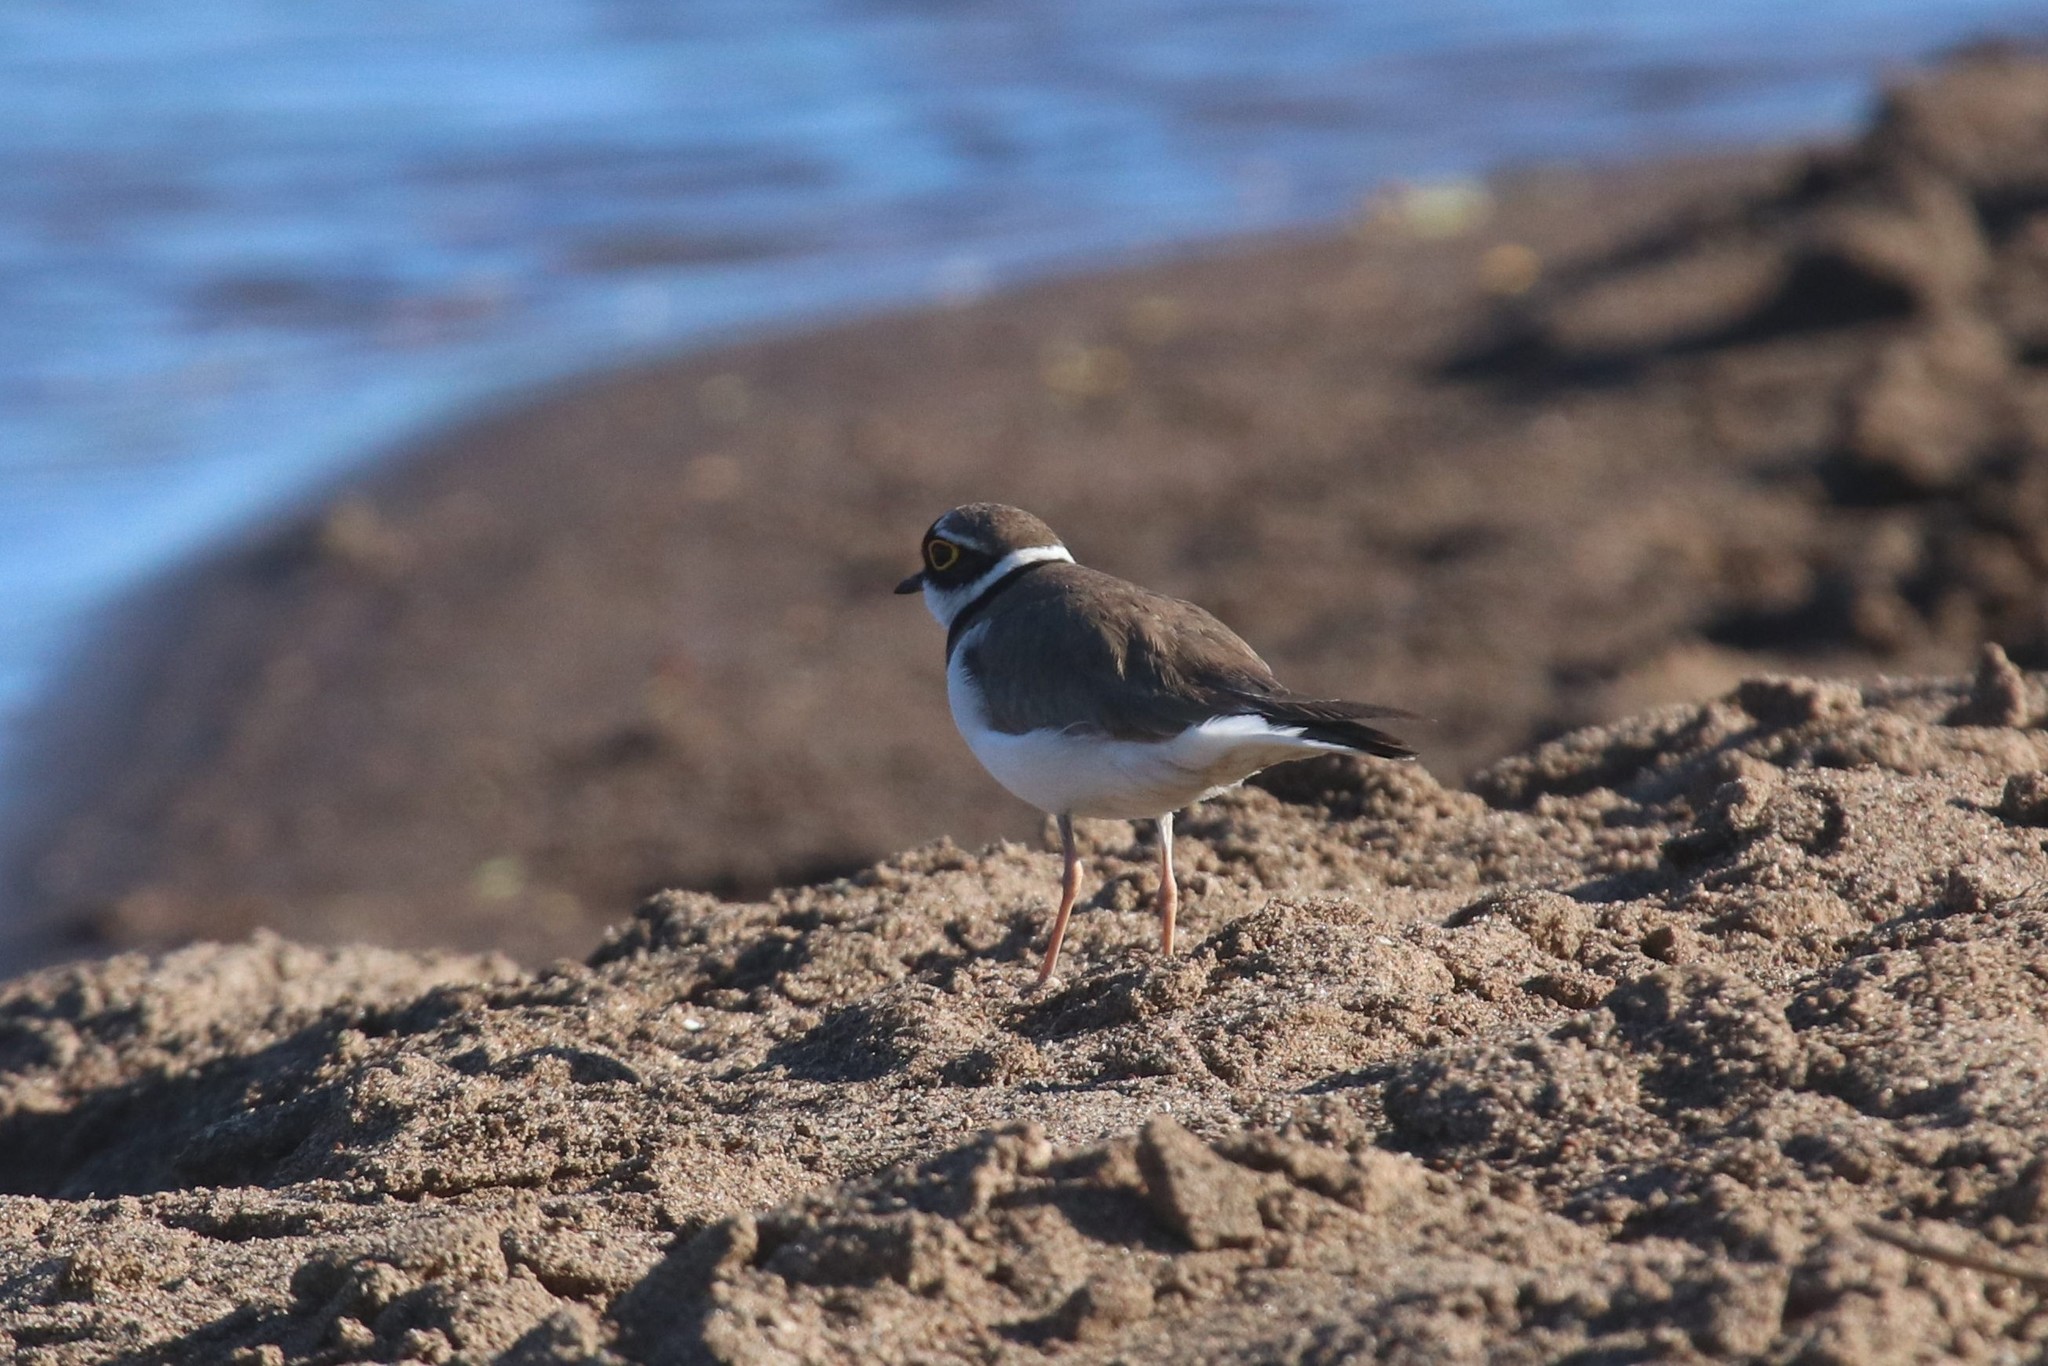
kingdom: Animalia
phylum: Chordata
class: Aves
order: Charadriiformes
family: Charadriidae
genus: Charadrius
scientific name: Charadrius dubius
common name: Little ringed plover
